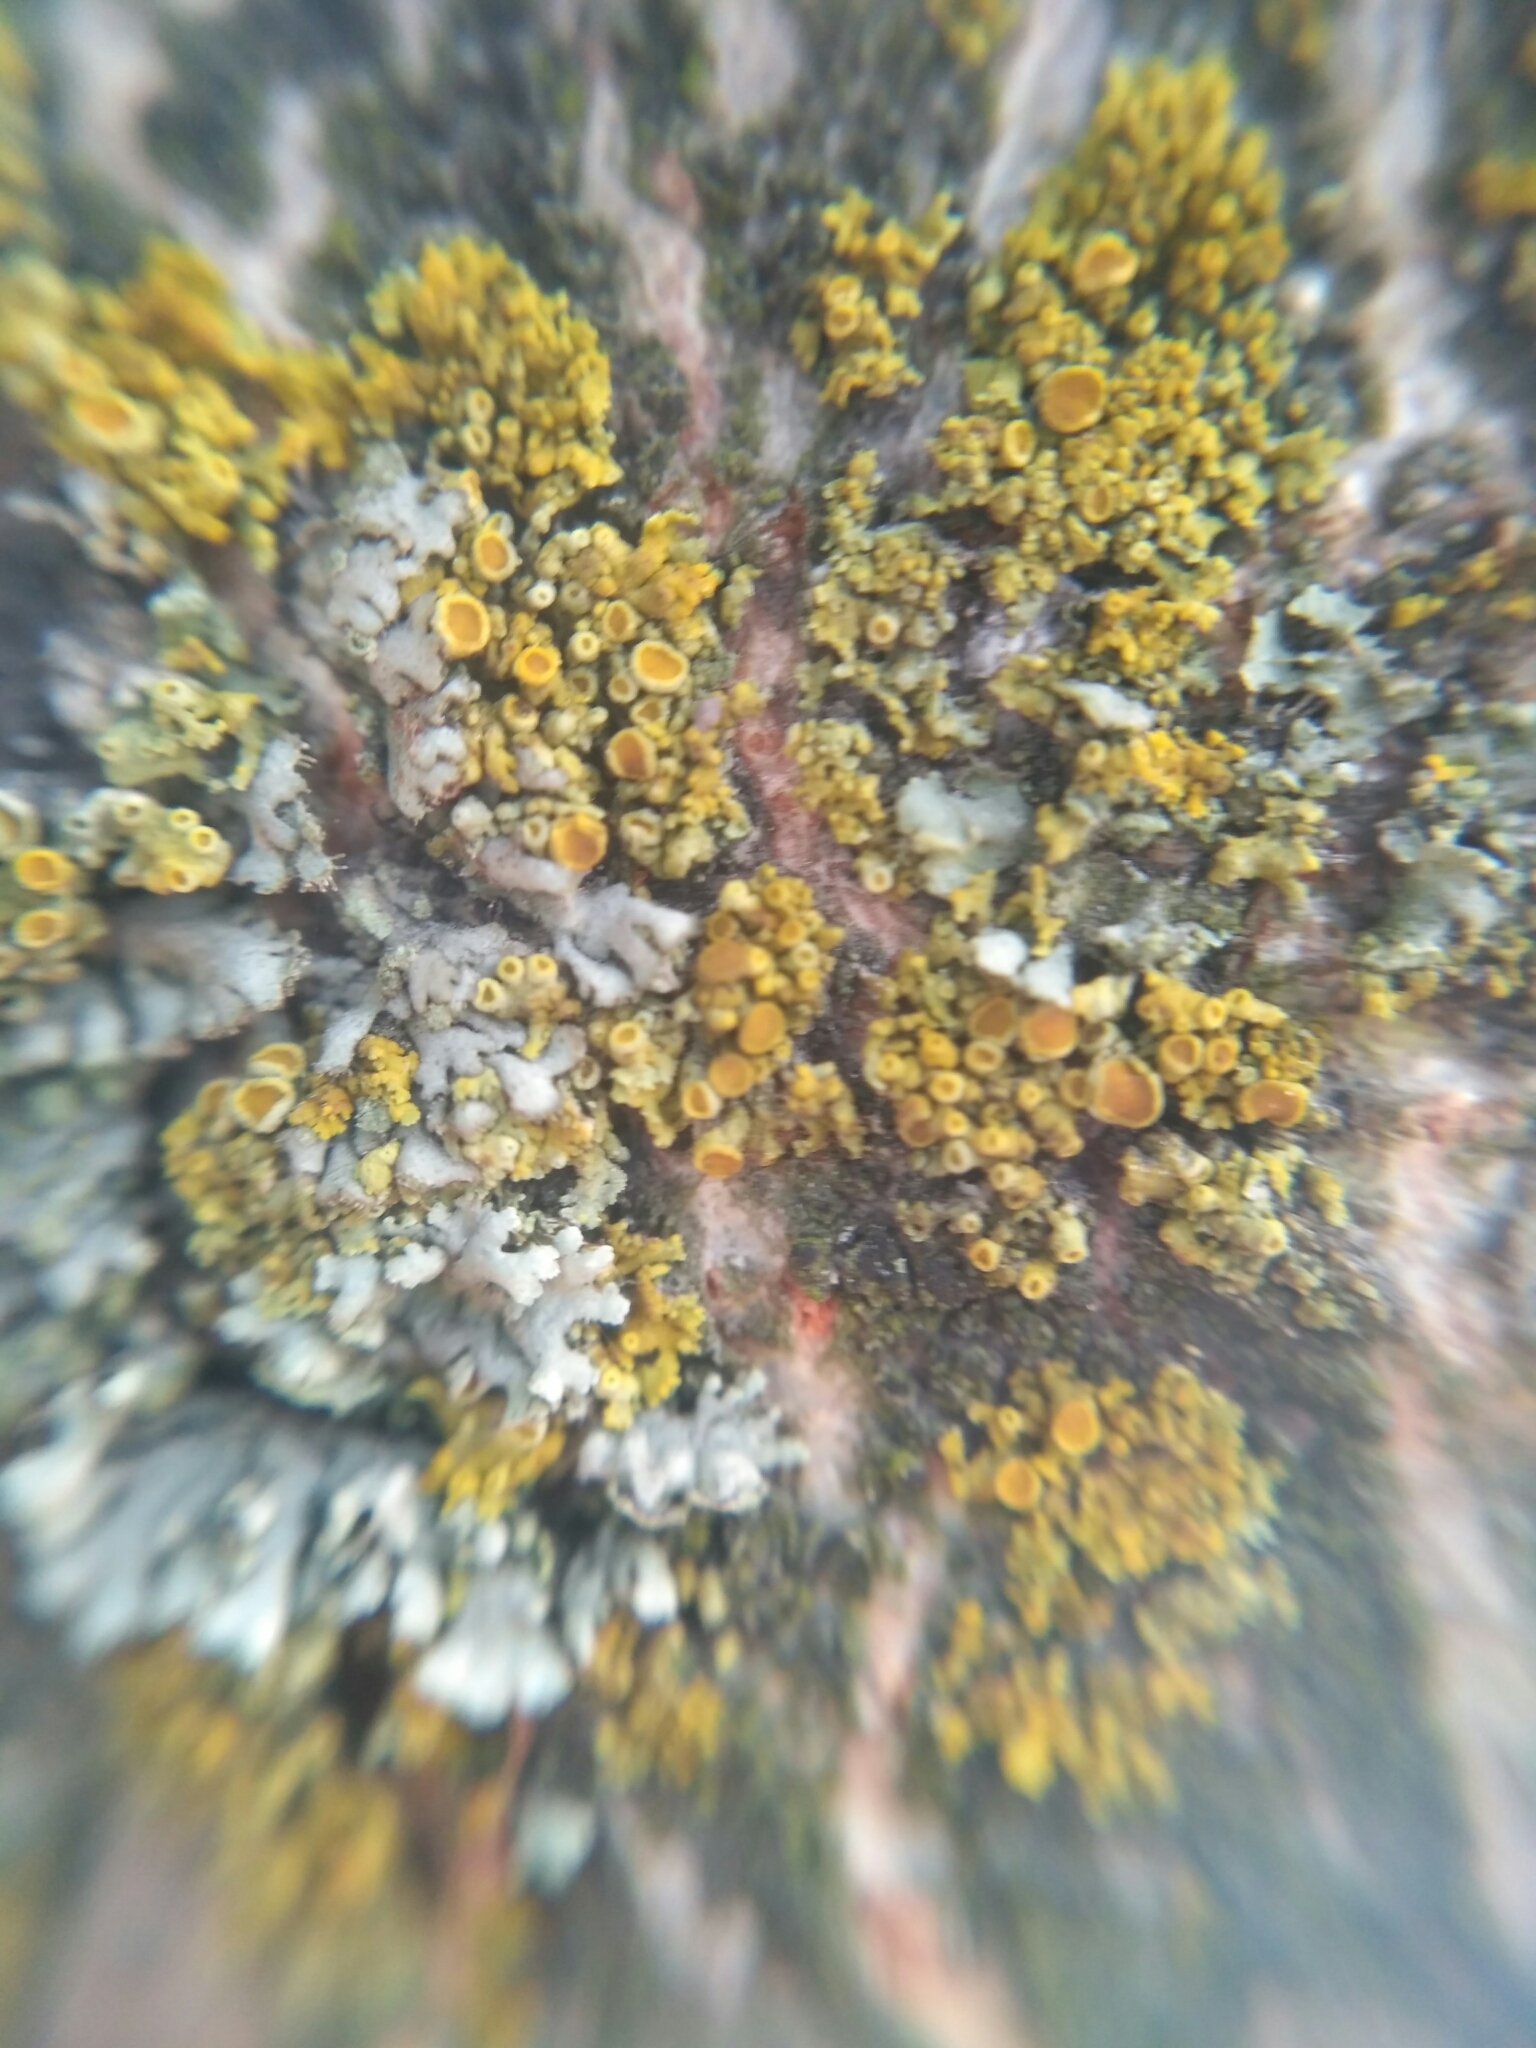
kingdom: Fungi
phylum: Ascomycota
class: Lecanoromycetes
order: Teloschistales
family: Teloschistaceae
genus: Polycauliona
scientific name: Polycauliona polycarpa
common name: Pin-cushion sunburst lichen
